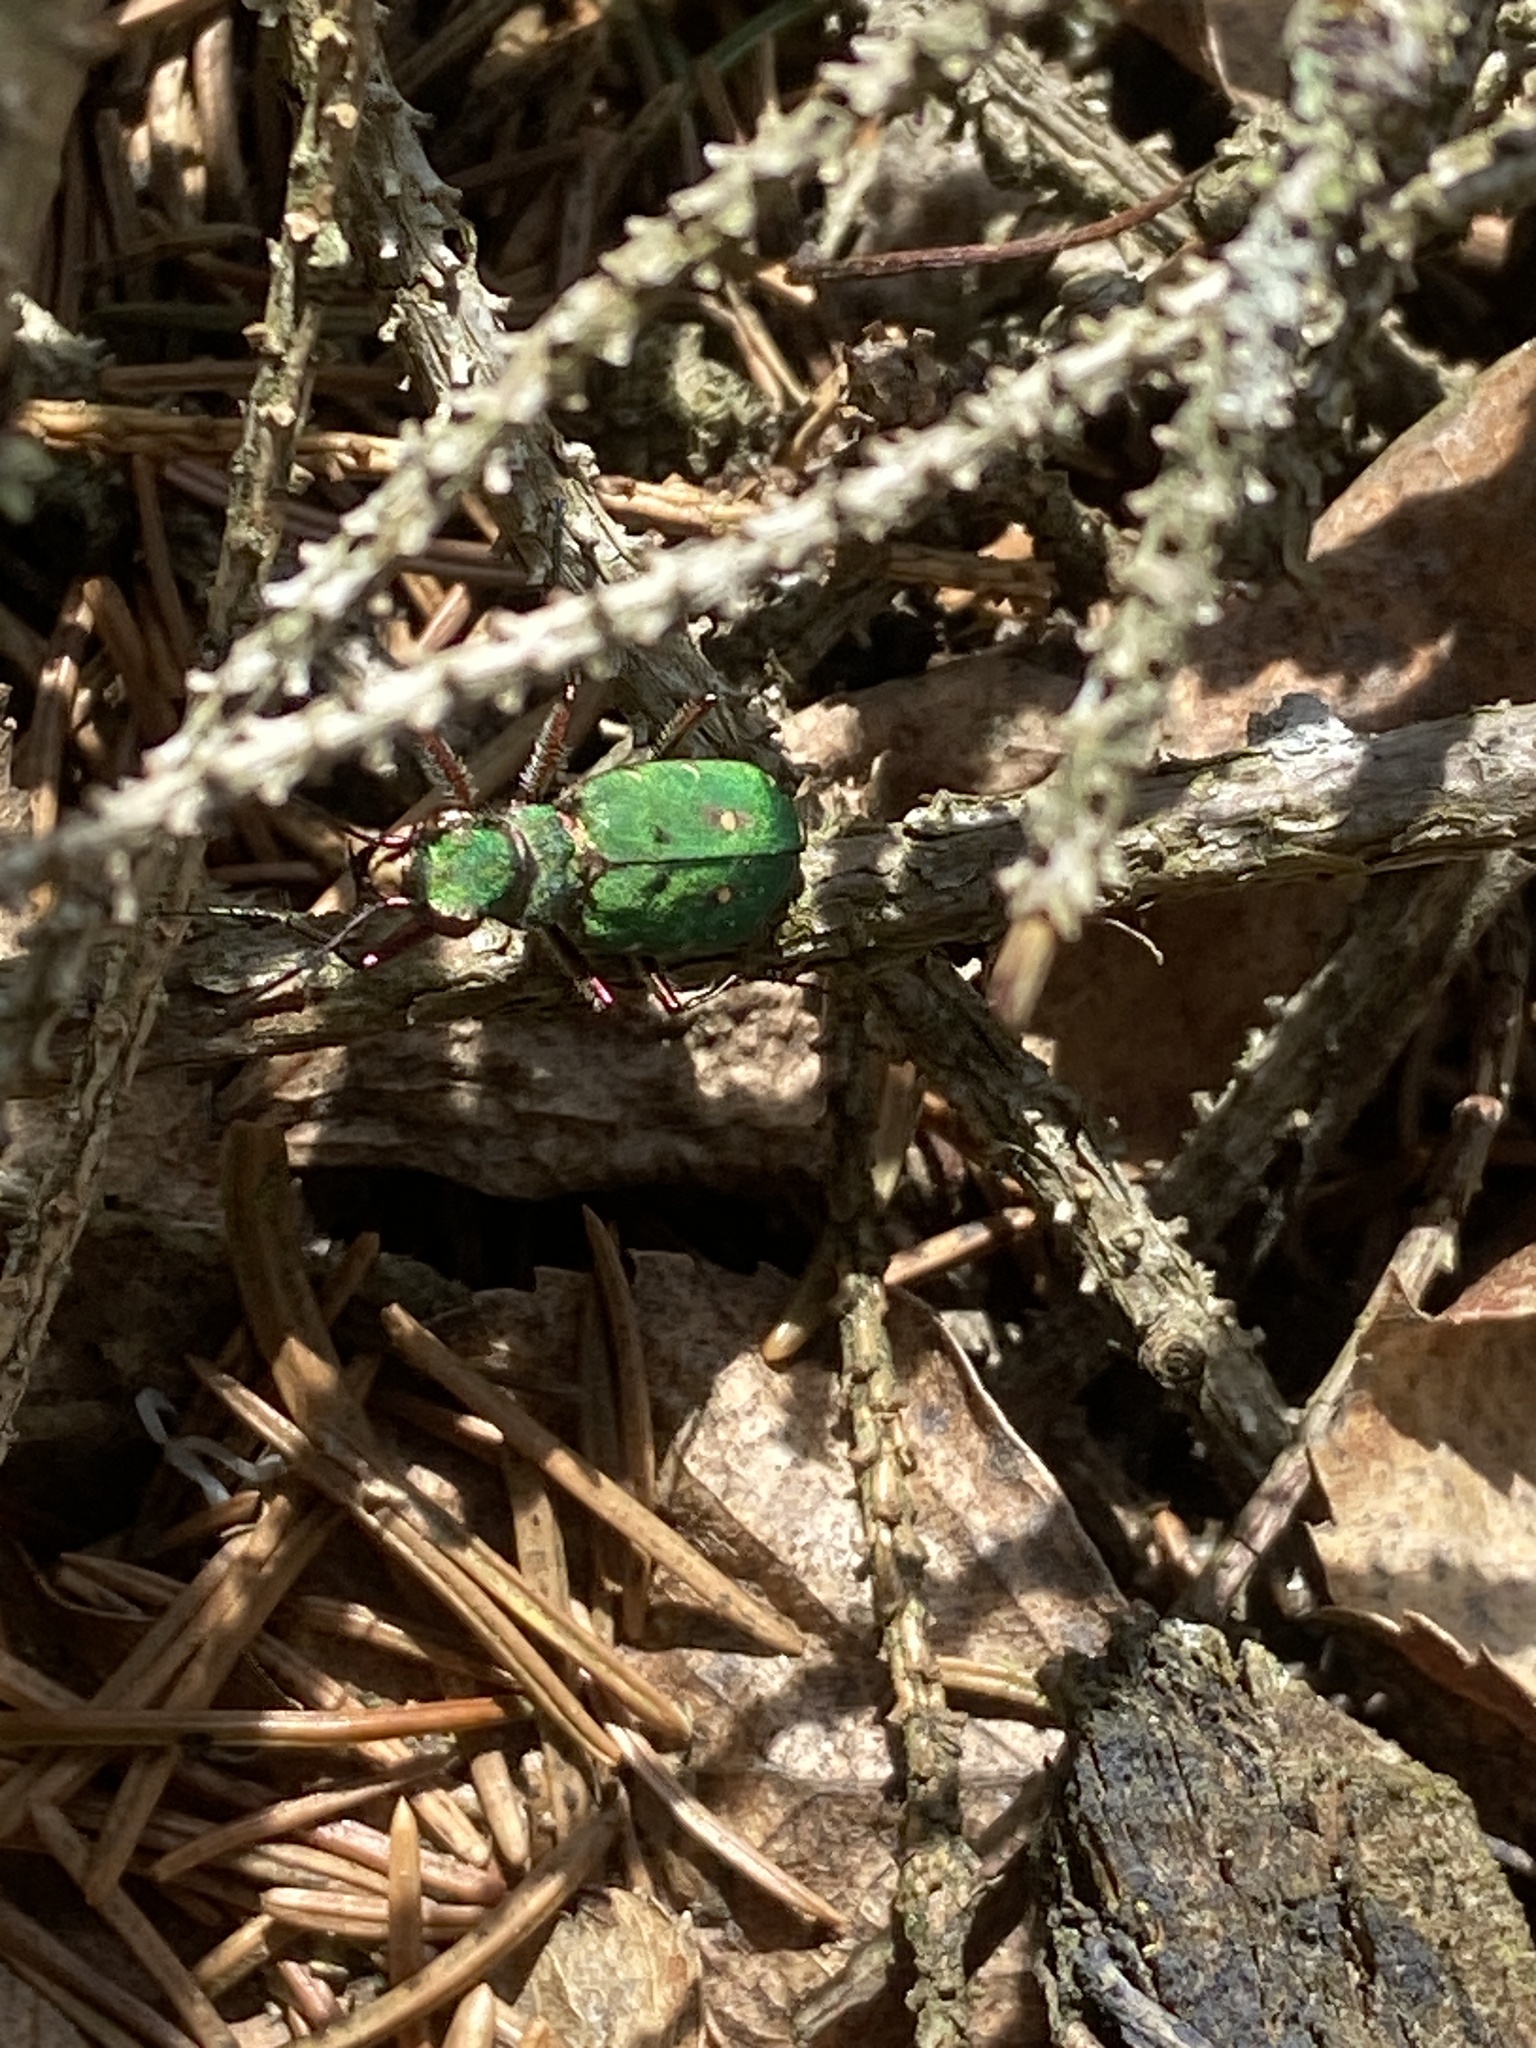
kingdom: Animalia
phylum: Arthropoda
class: Insecta
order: Coleoptera
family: Carabidae
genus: Cicindela
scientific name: Cicindela campestris
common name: Common tiger beetle
